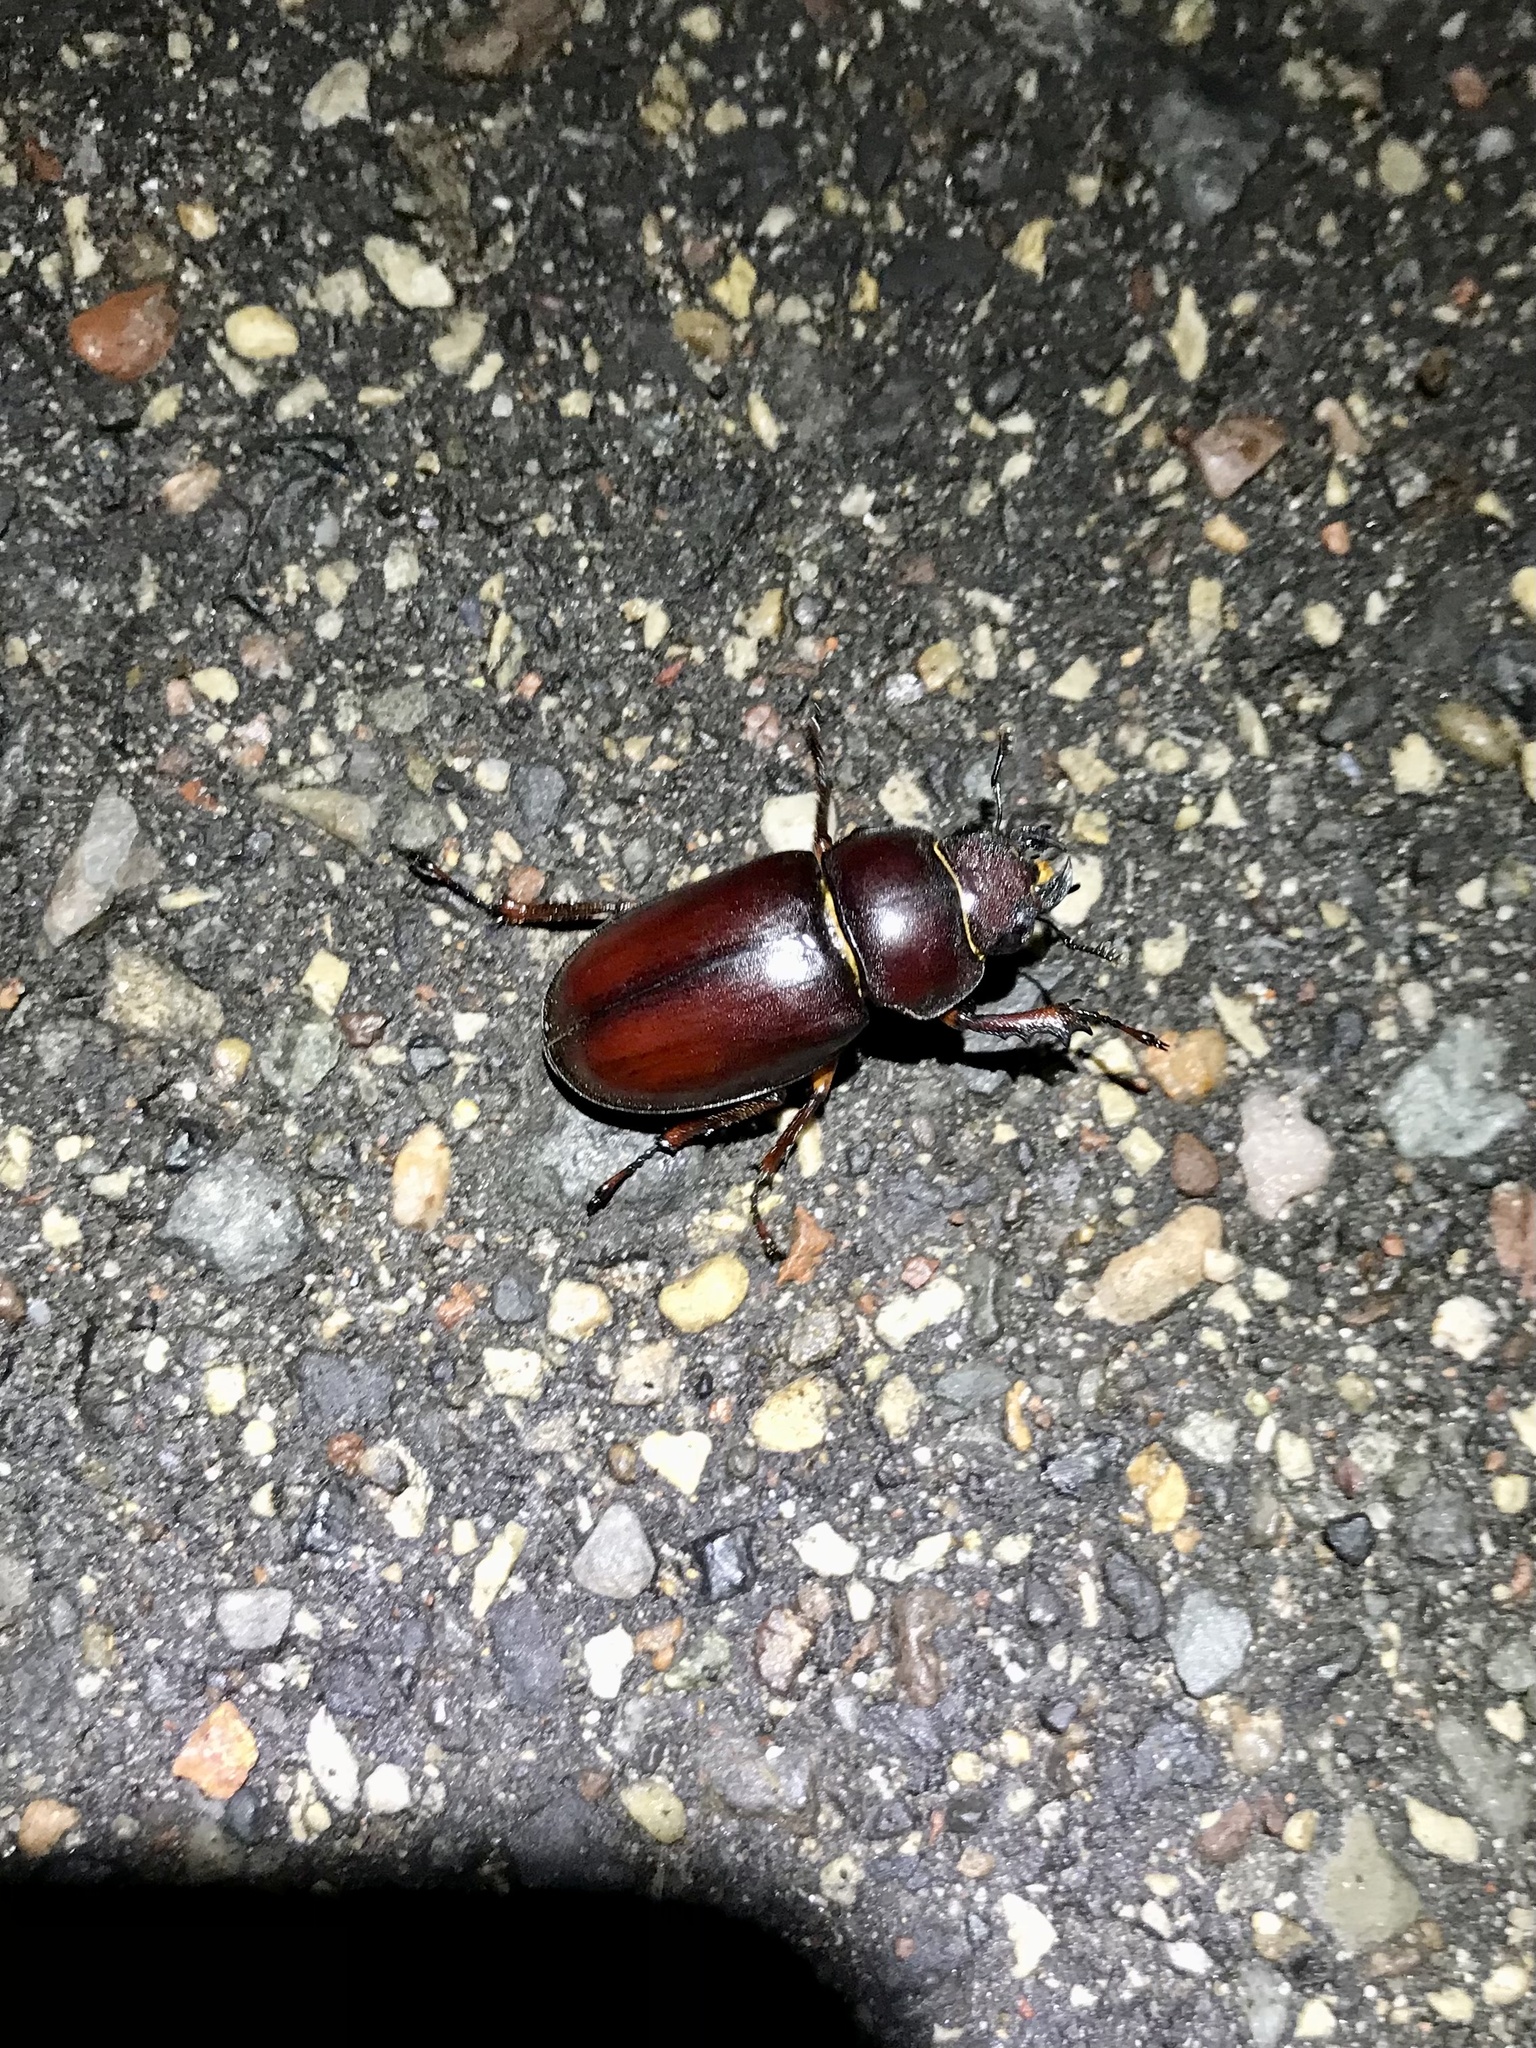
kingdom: Animalia
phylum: Arthropoda
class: Insecta
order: Coleoptera
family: Lucanidae
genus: Lucanus
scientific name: Lucanus capreolus
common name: Stag beetle
